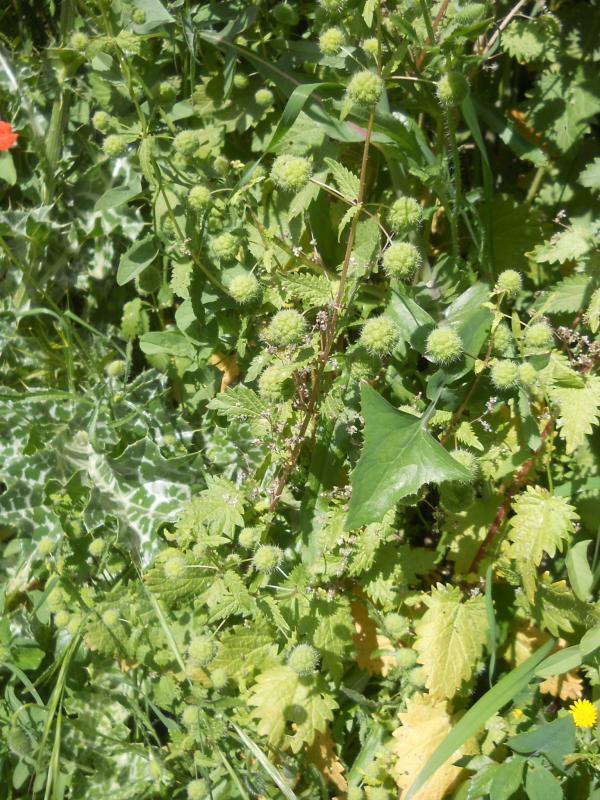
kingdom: Plantae
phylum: Tracheophyta
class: Magnoliopsida
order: Rosales
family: Urticaceae
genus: Urtica
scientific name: Urtica pilulifera
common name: Roman nettle
